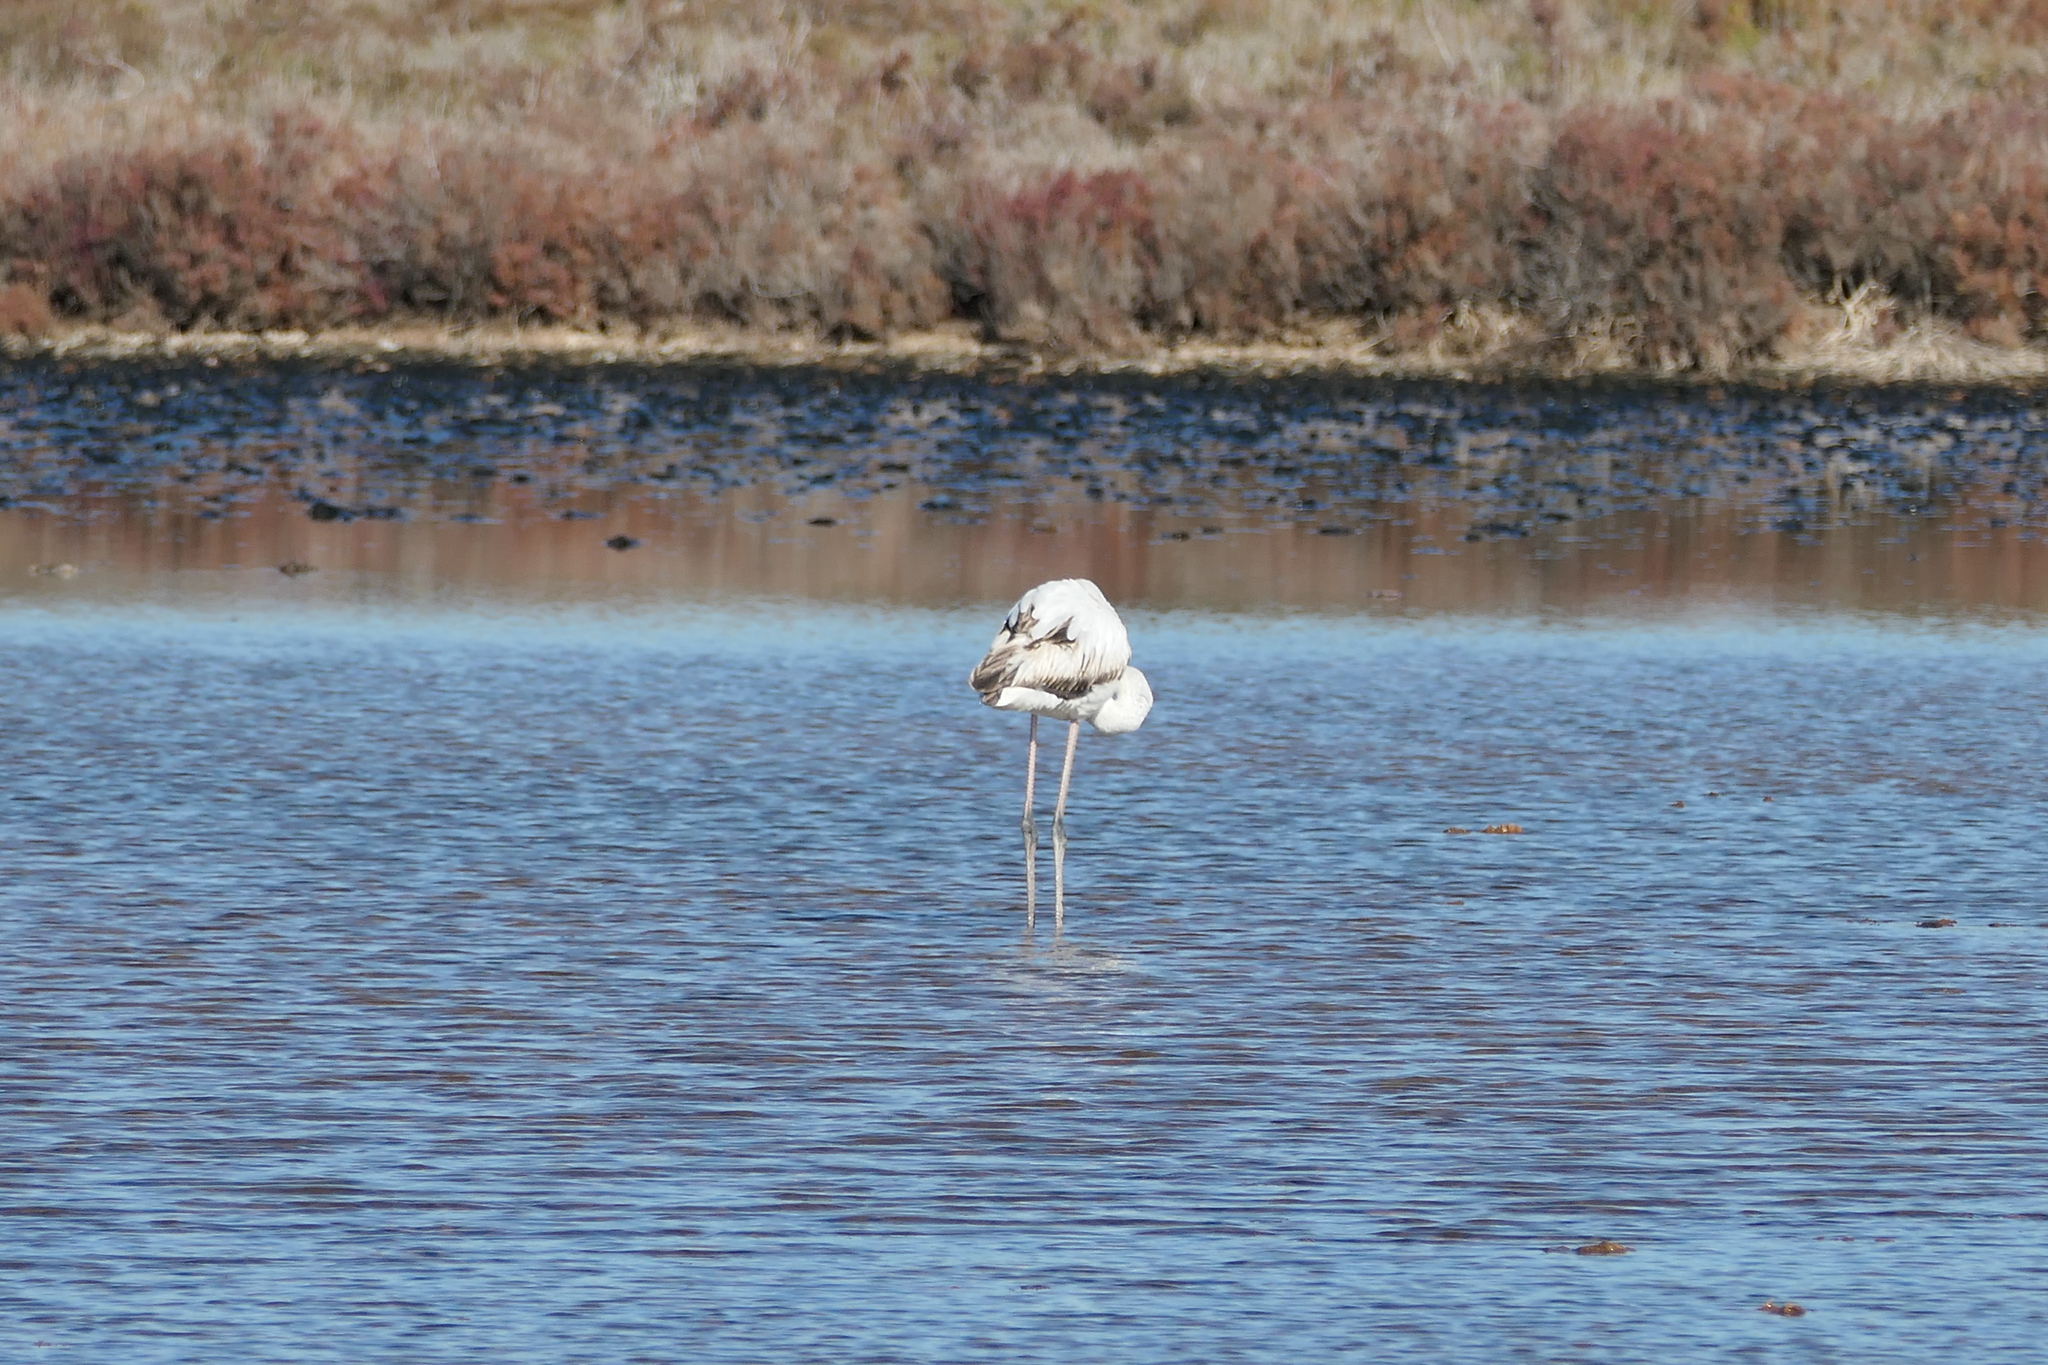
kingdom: Animalia
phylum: Chordata
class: Aves
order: Phoenicopteriformes
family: Phoenicopteridae
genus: Phoenicopterus
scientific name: Phoenicopterus roseus
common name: Greater flamingo
